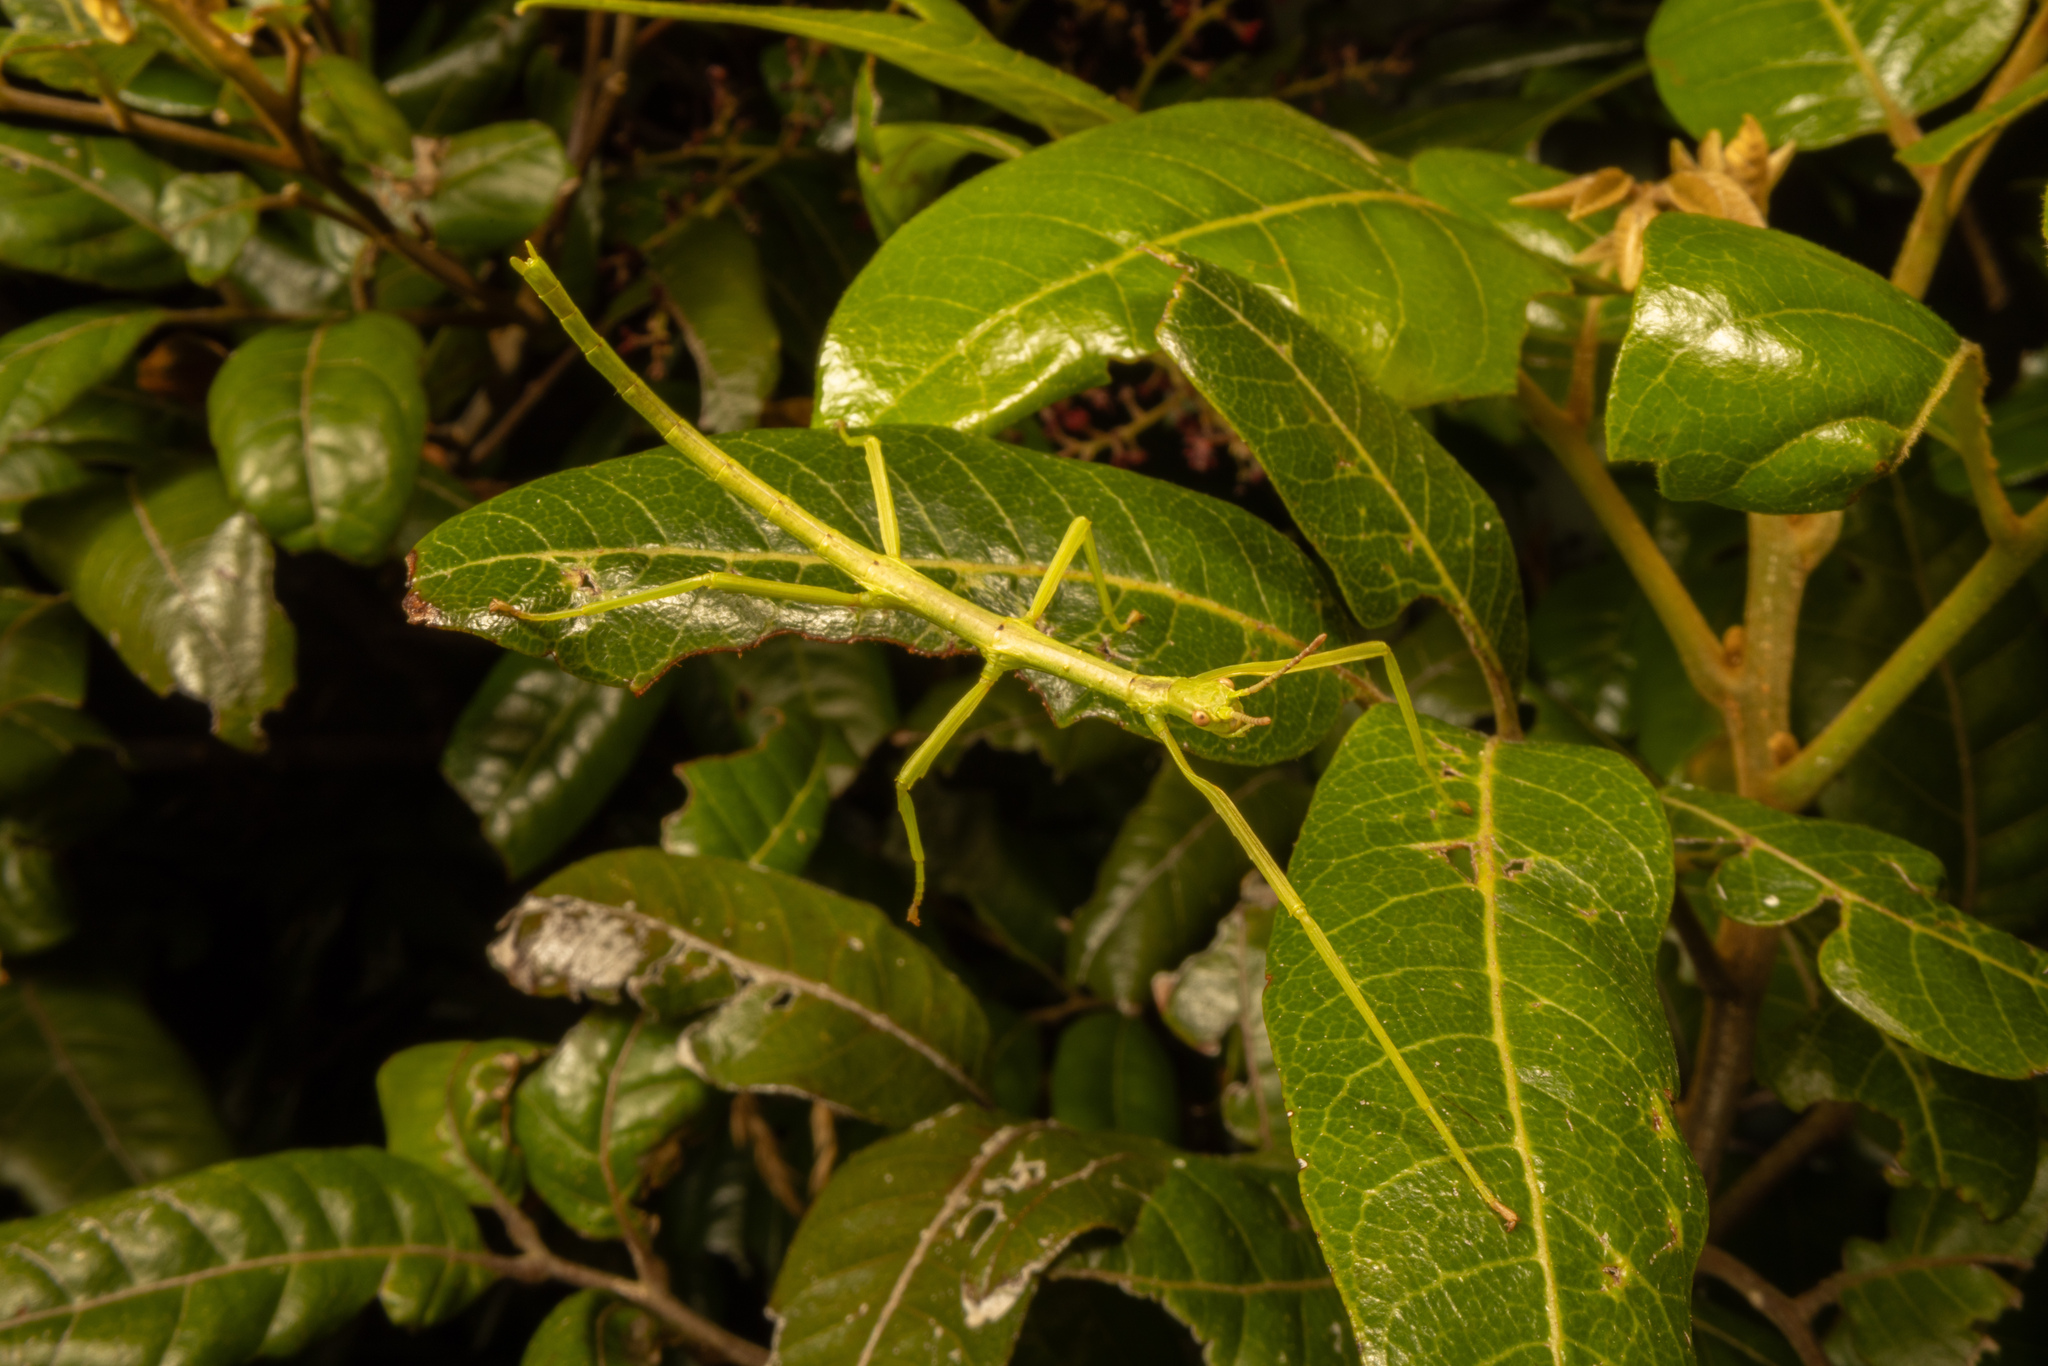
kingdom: Animalia
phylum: Arthropoda
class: Insecta
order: Phasmida
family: Phasmatidae
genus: Clitarchus
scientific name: Clitarchus hookeri
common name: Smooth stick insect
